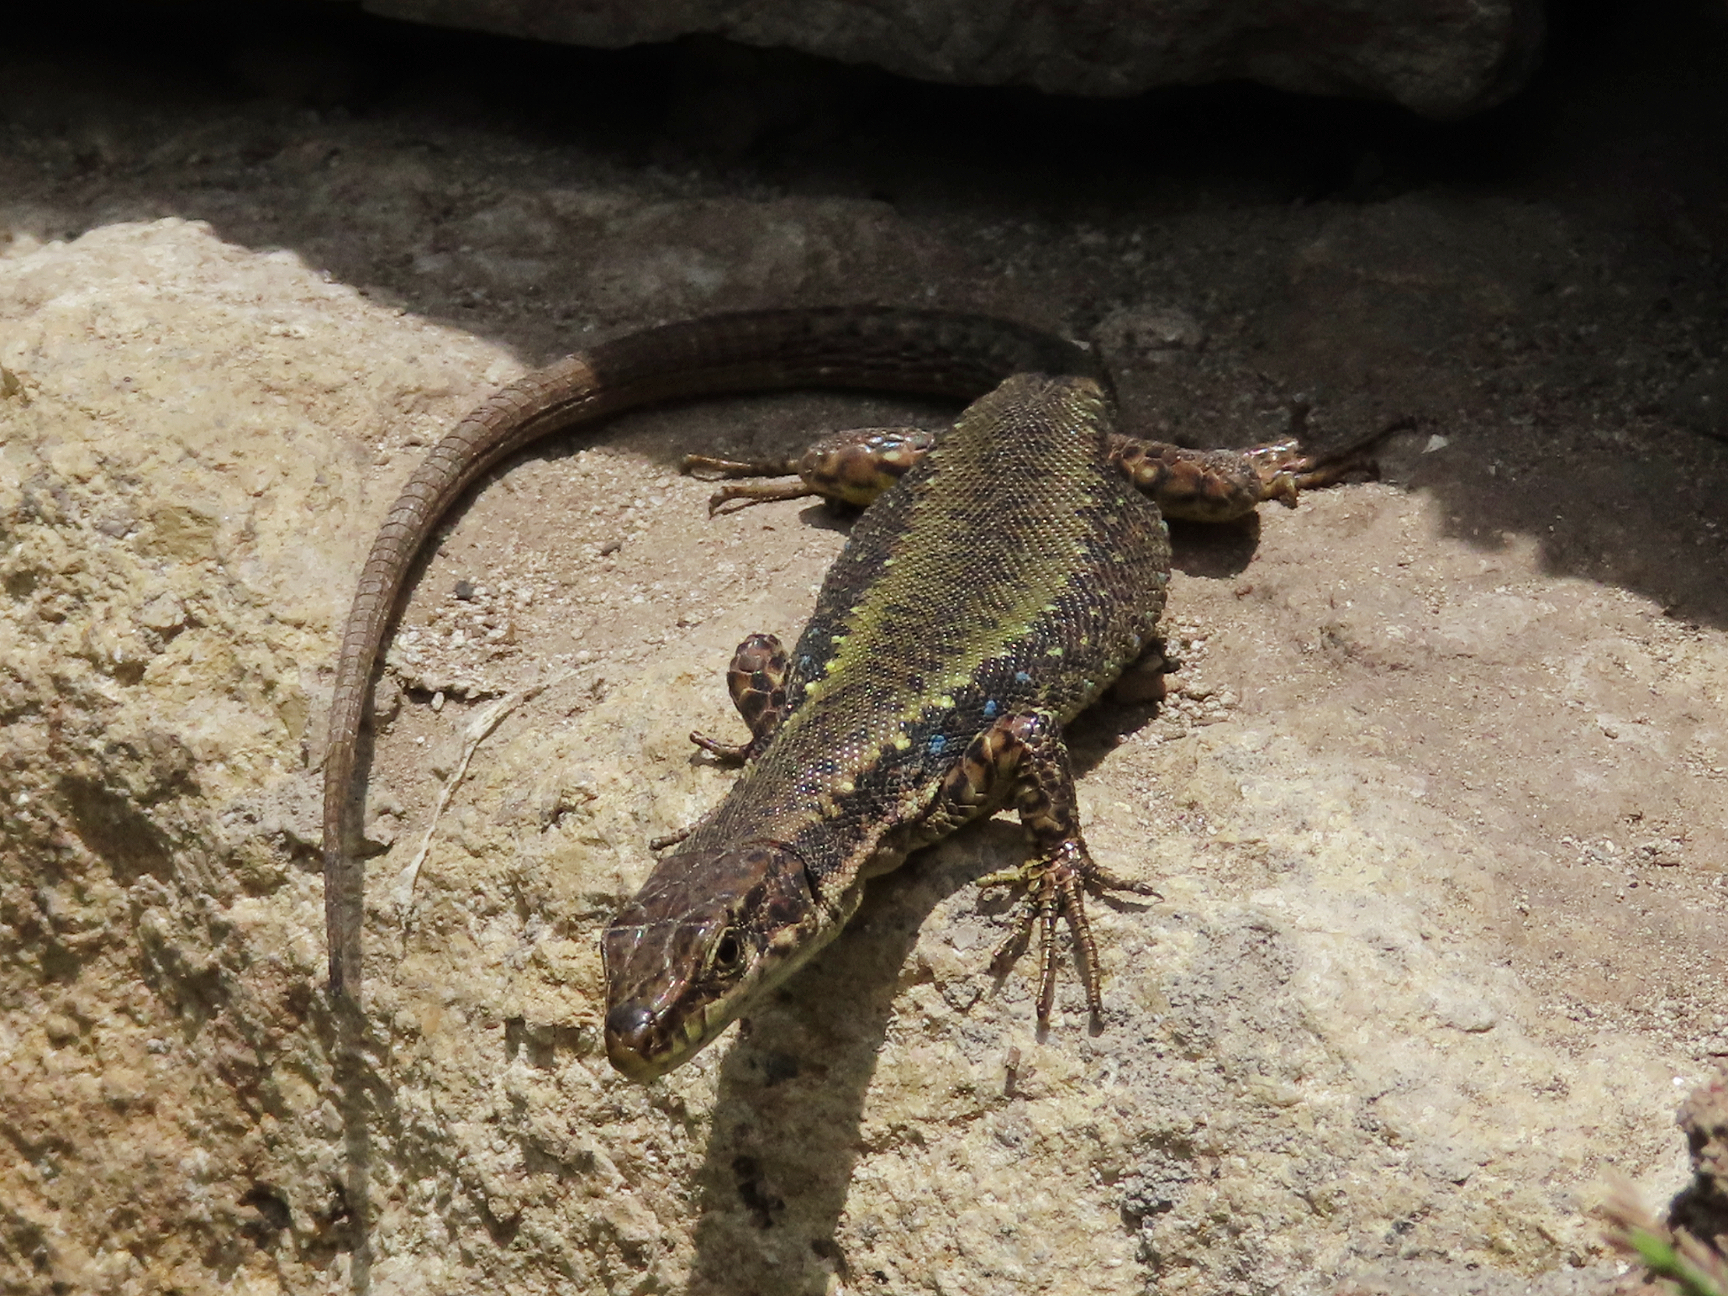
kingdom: Animalia
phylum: Chordata
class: Squamata
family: Lacertidae
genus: Darevskia
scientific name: Darevskia armeniaca
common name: Armenian lizard
